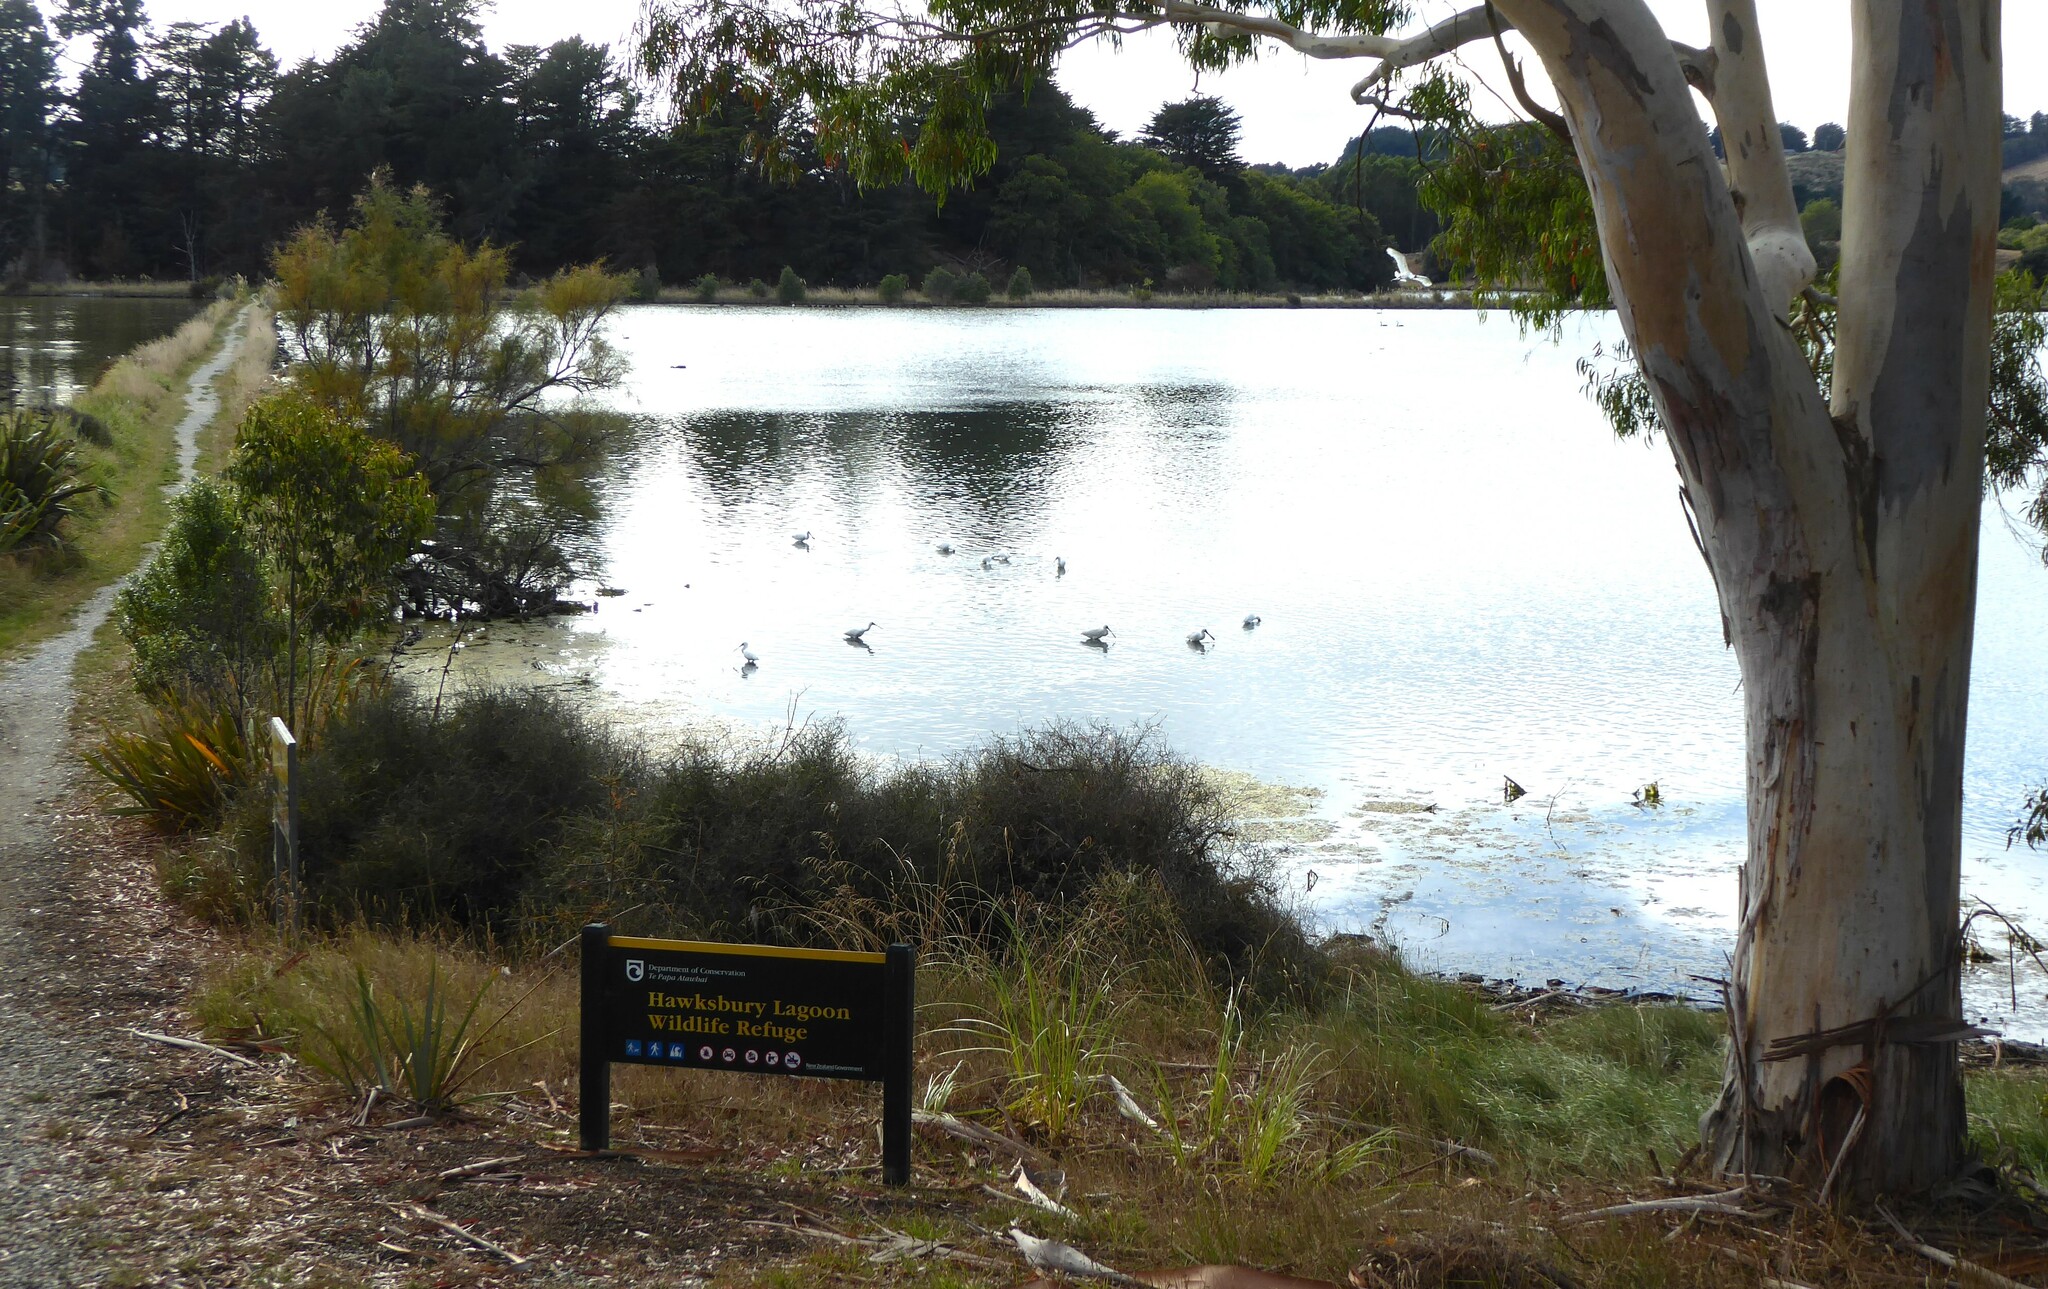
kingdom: Animalia
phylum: Chordata
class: Aves
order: Pelecaniformes
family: Threskiornithidae
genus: Platalea
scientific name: Platalea regia
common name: Royal spoonbill
